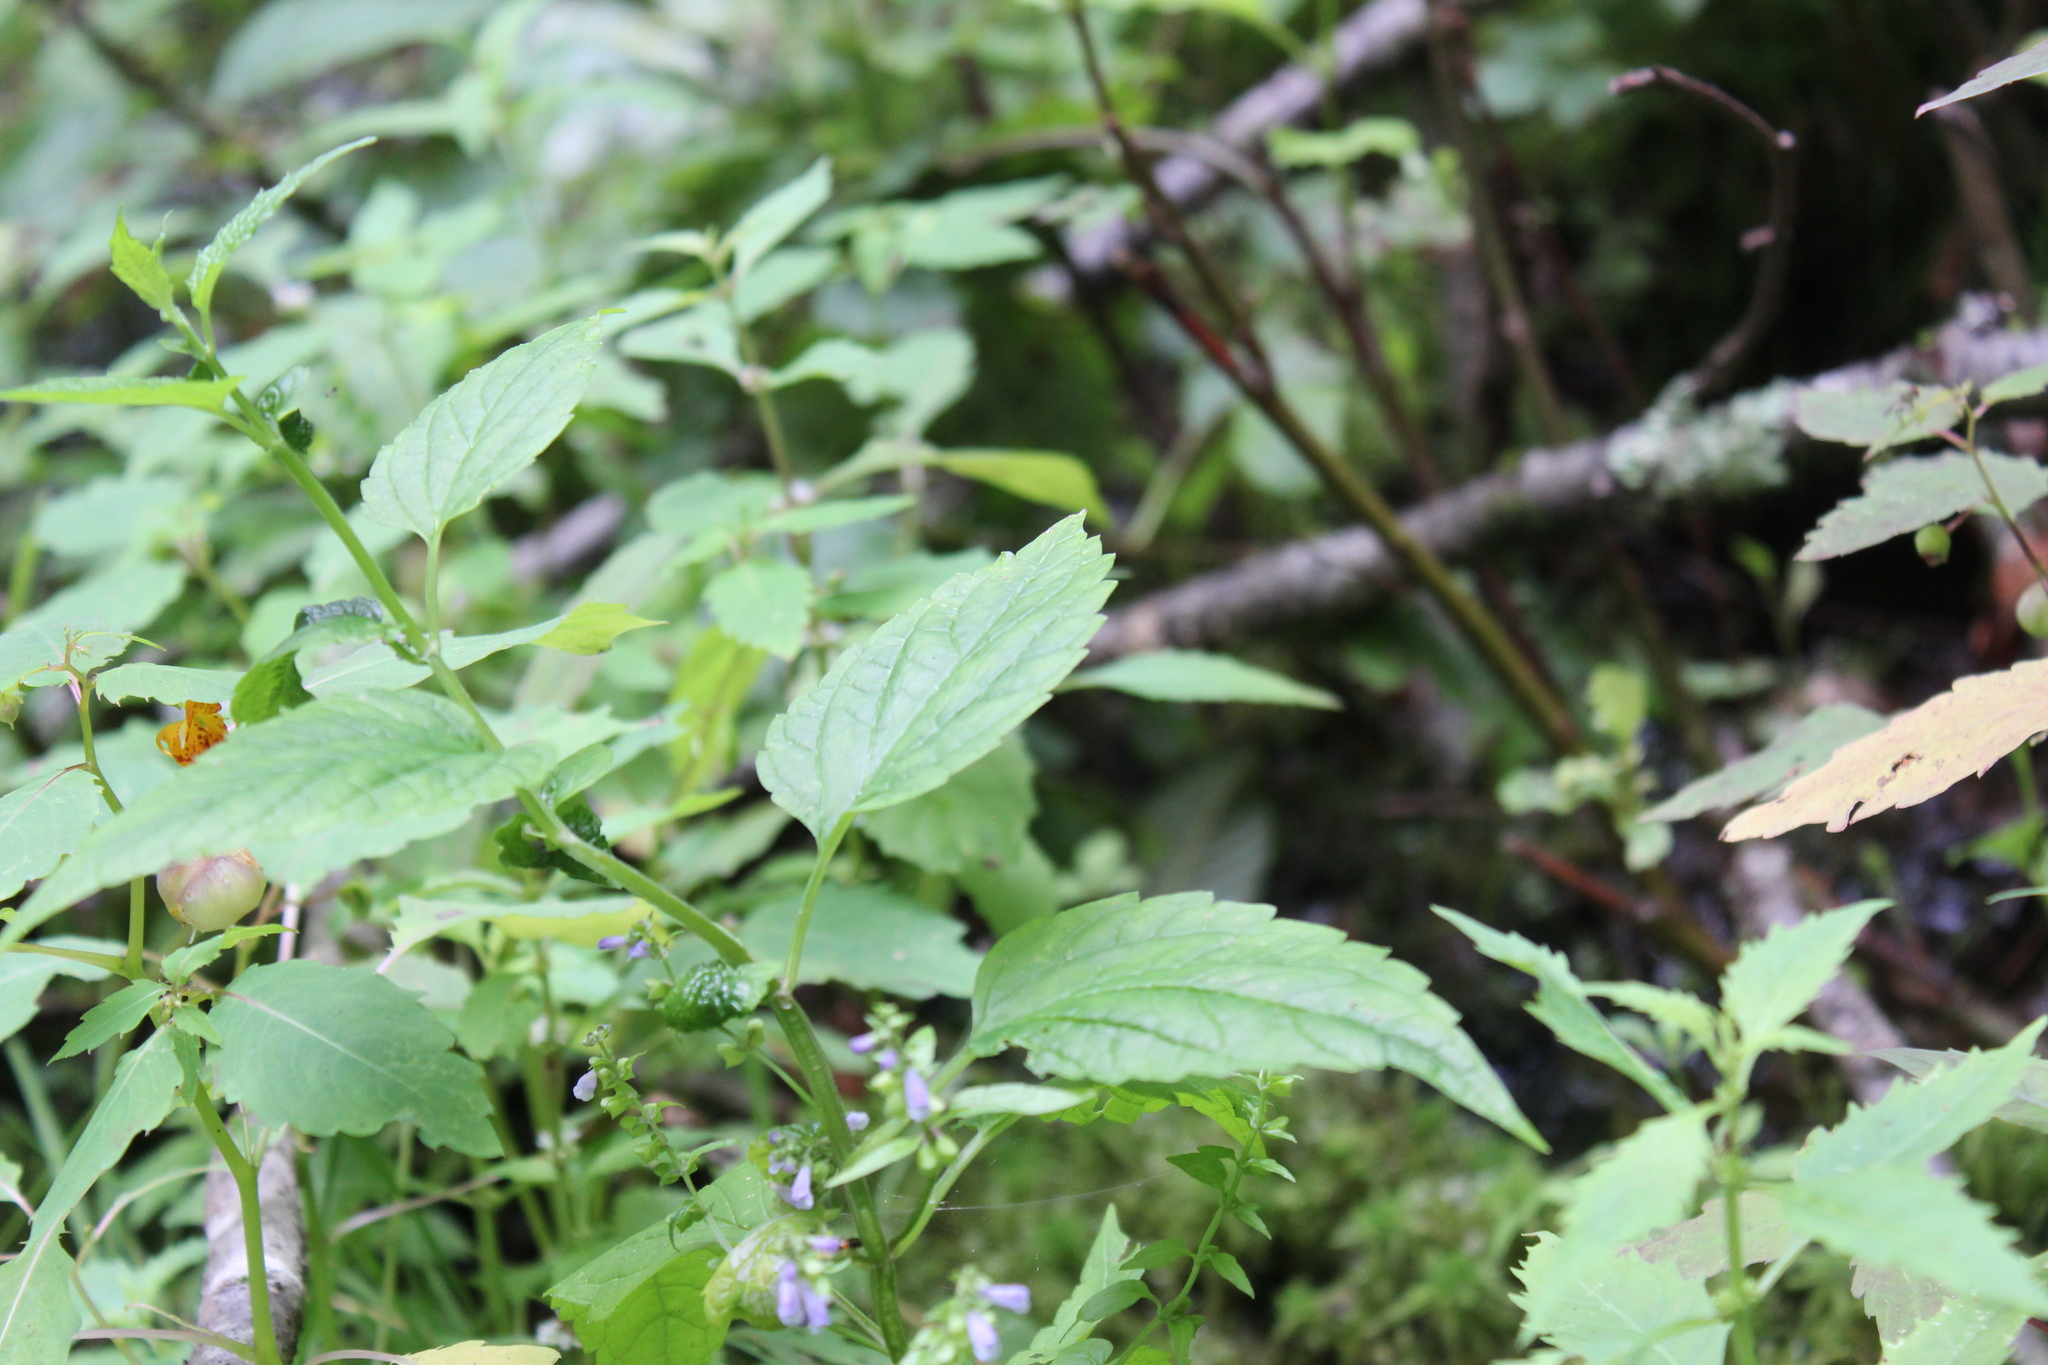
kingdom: Plantae
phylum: Tracheophyta
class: Magnoliopsida
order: Lamiales
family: Lamiaceae
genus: Scutellaria
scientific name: Scutellaria lateriflora
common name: Blue skullcap
